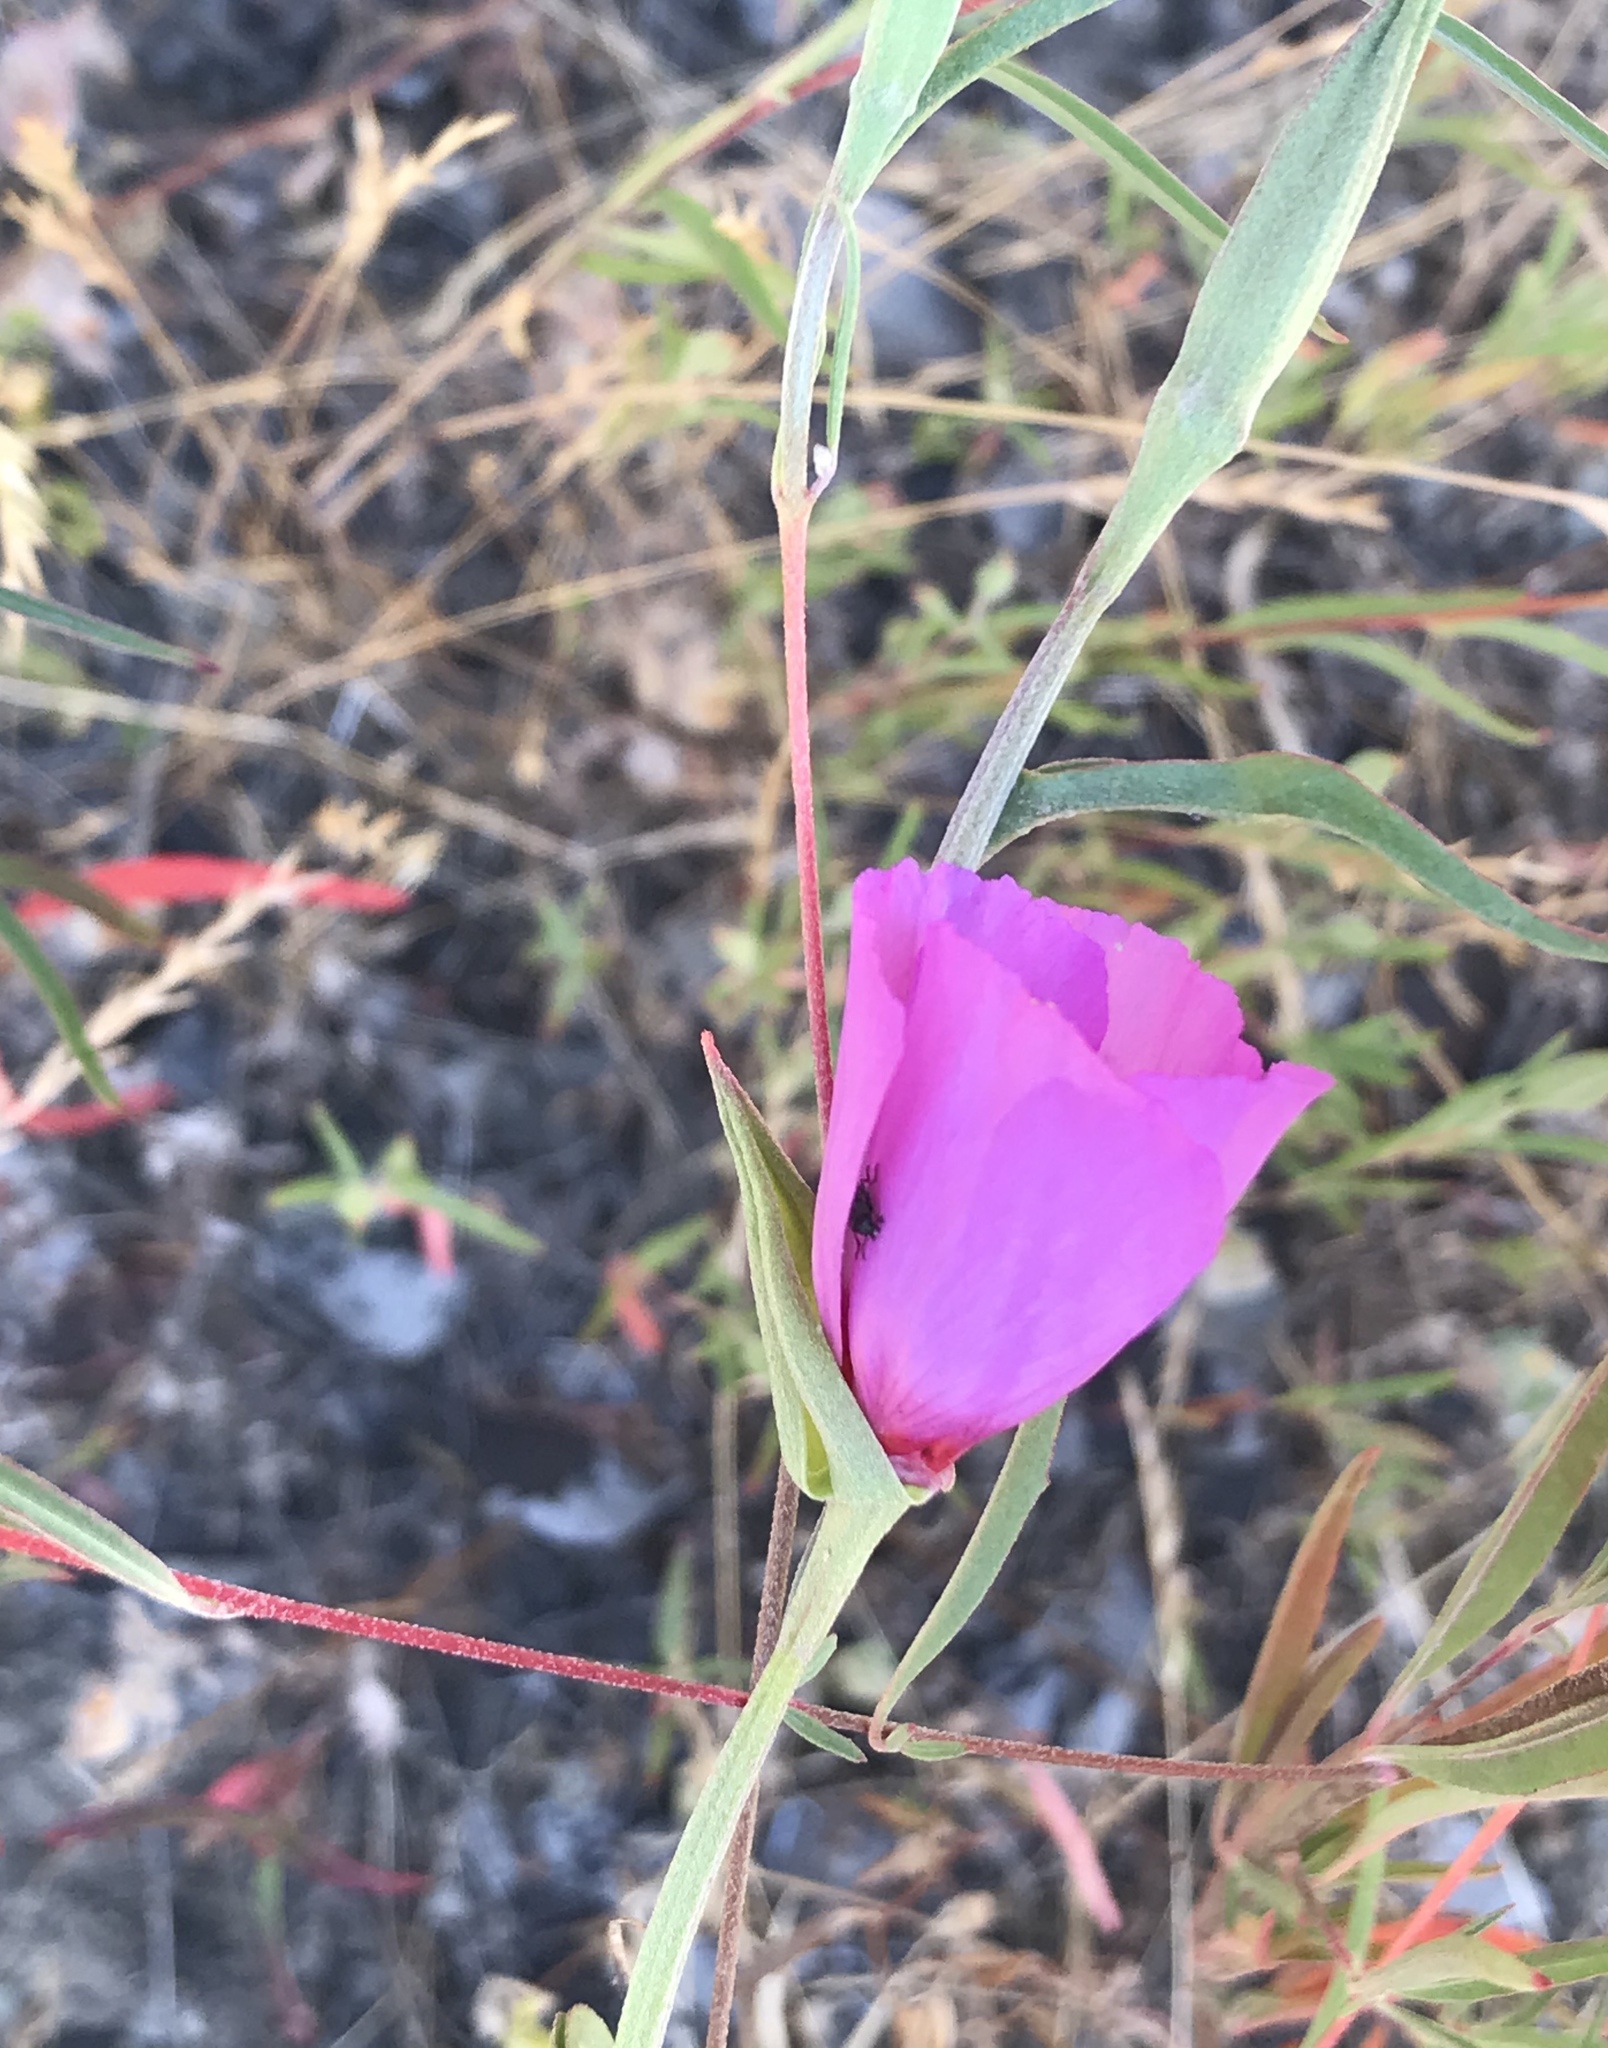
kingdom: Plantae
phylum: Tracheophyta
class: Magnoliopsida
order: Myrtales
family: Onagraceae
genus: Clarkia
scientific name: Clarkia rubicunda
